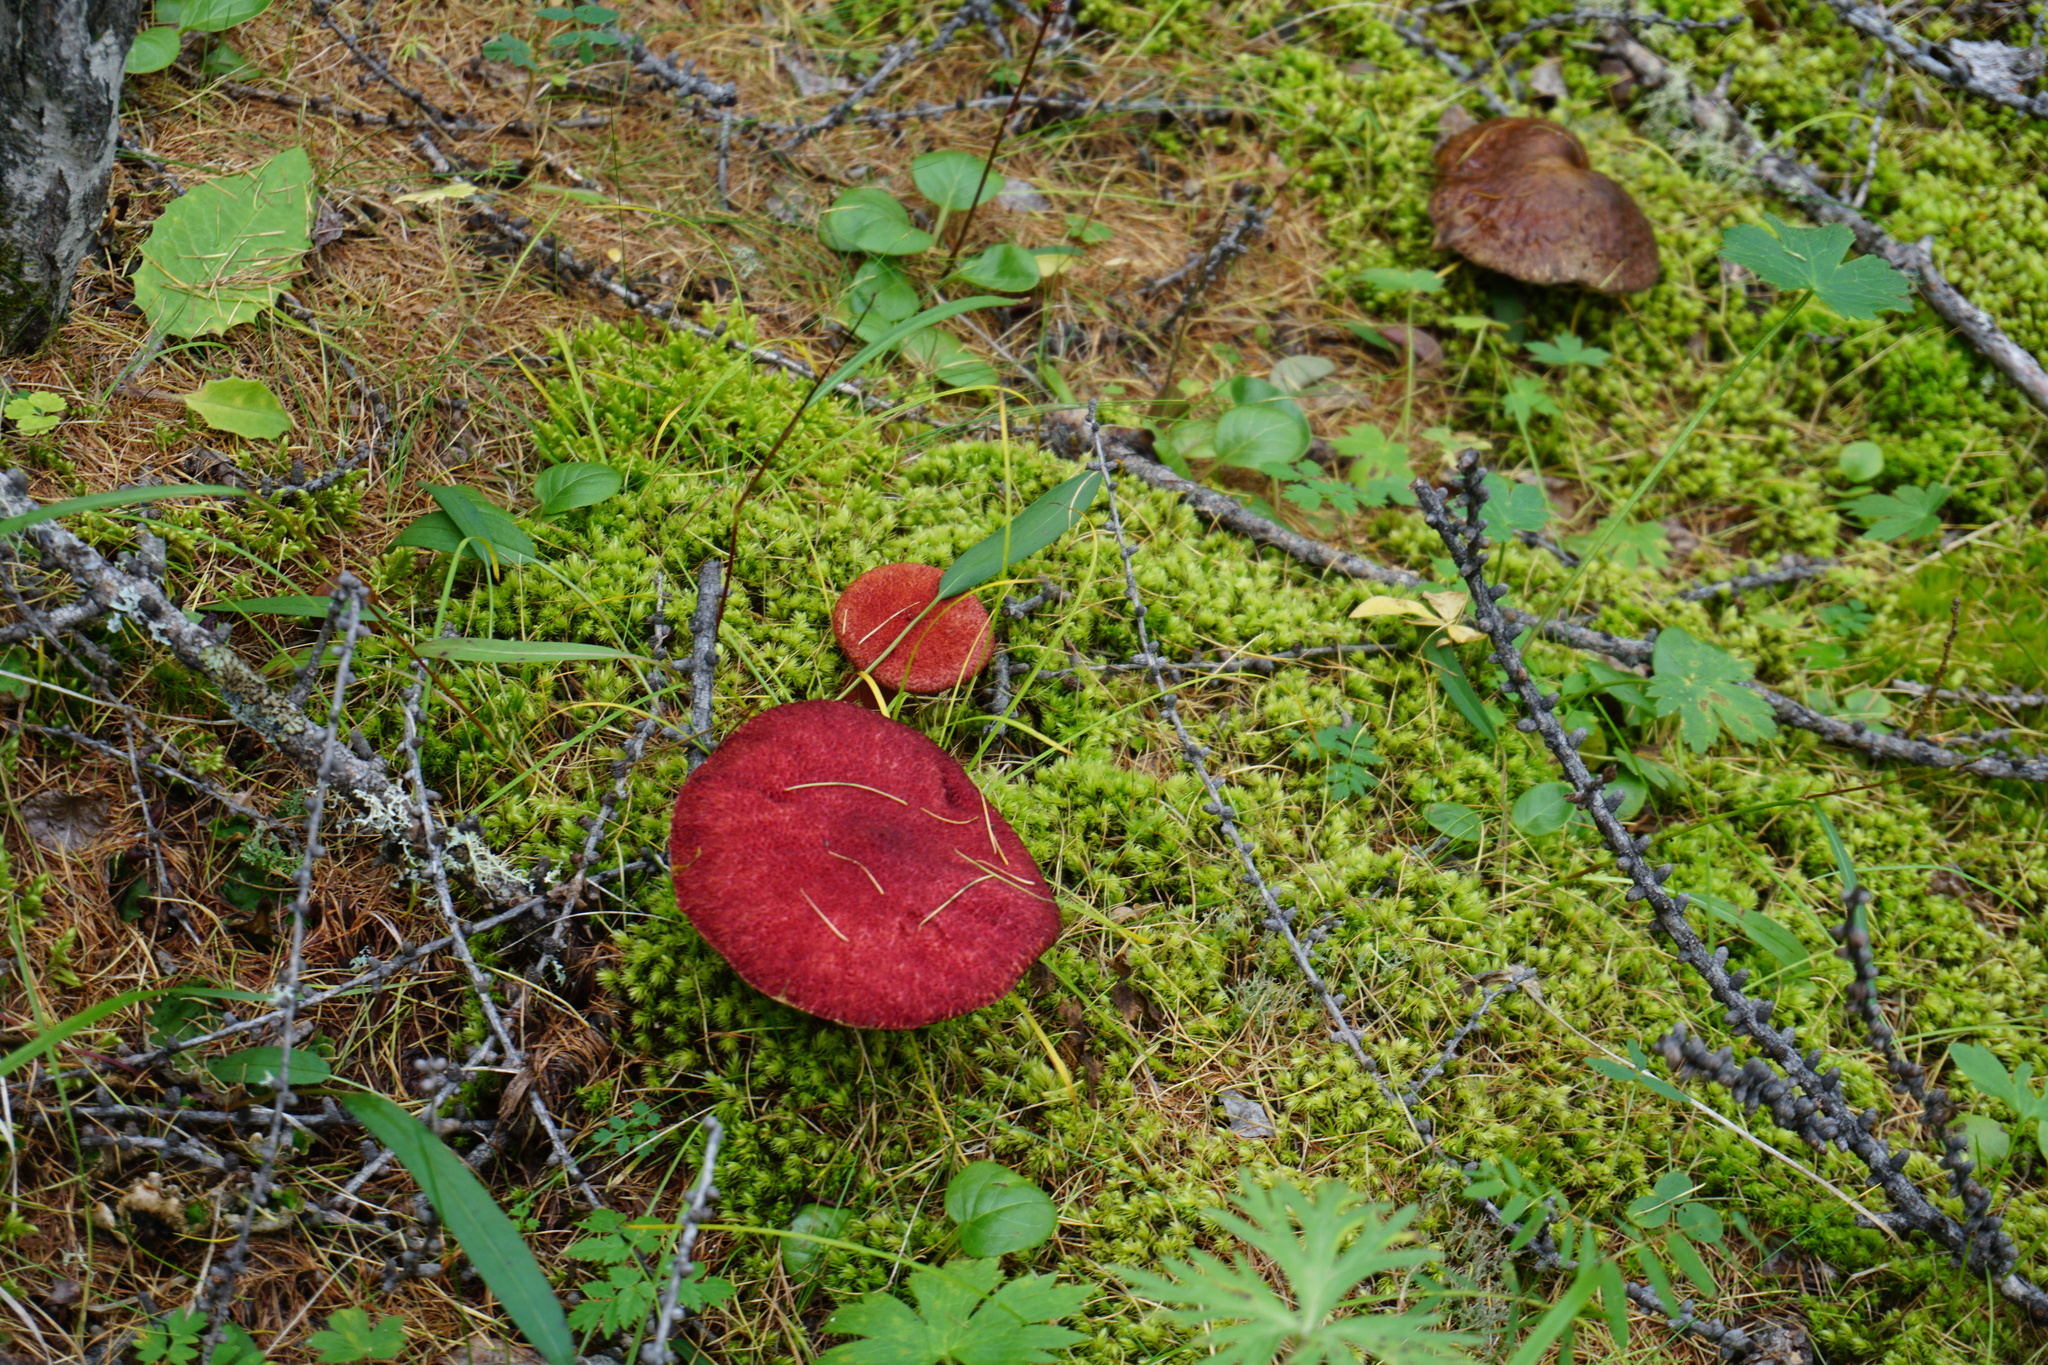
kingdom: Fungi
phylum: Basidiomycota
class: Agaricomycetes
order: Boletales
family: Suillaceae
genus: Boletinus
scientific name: Boletinus asiaticus
